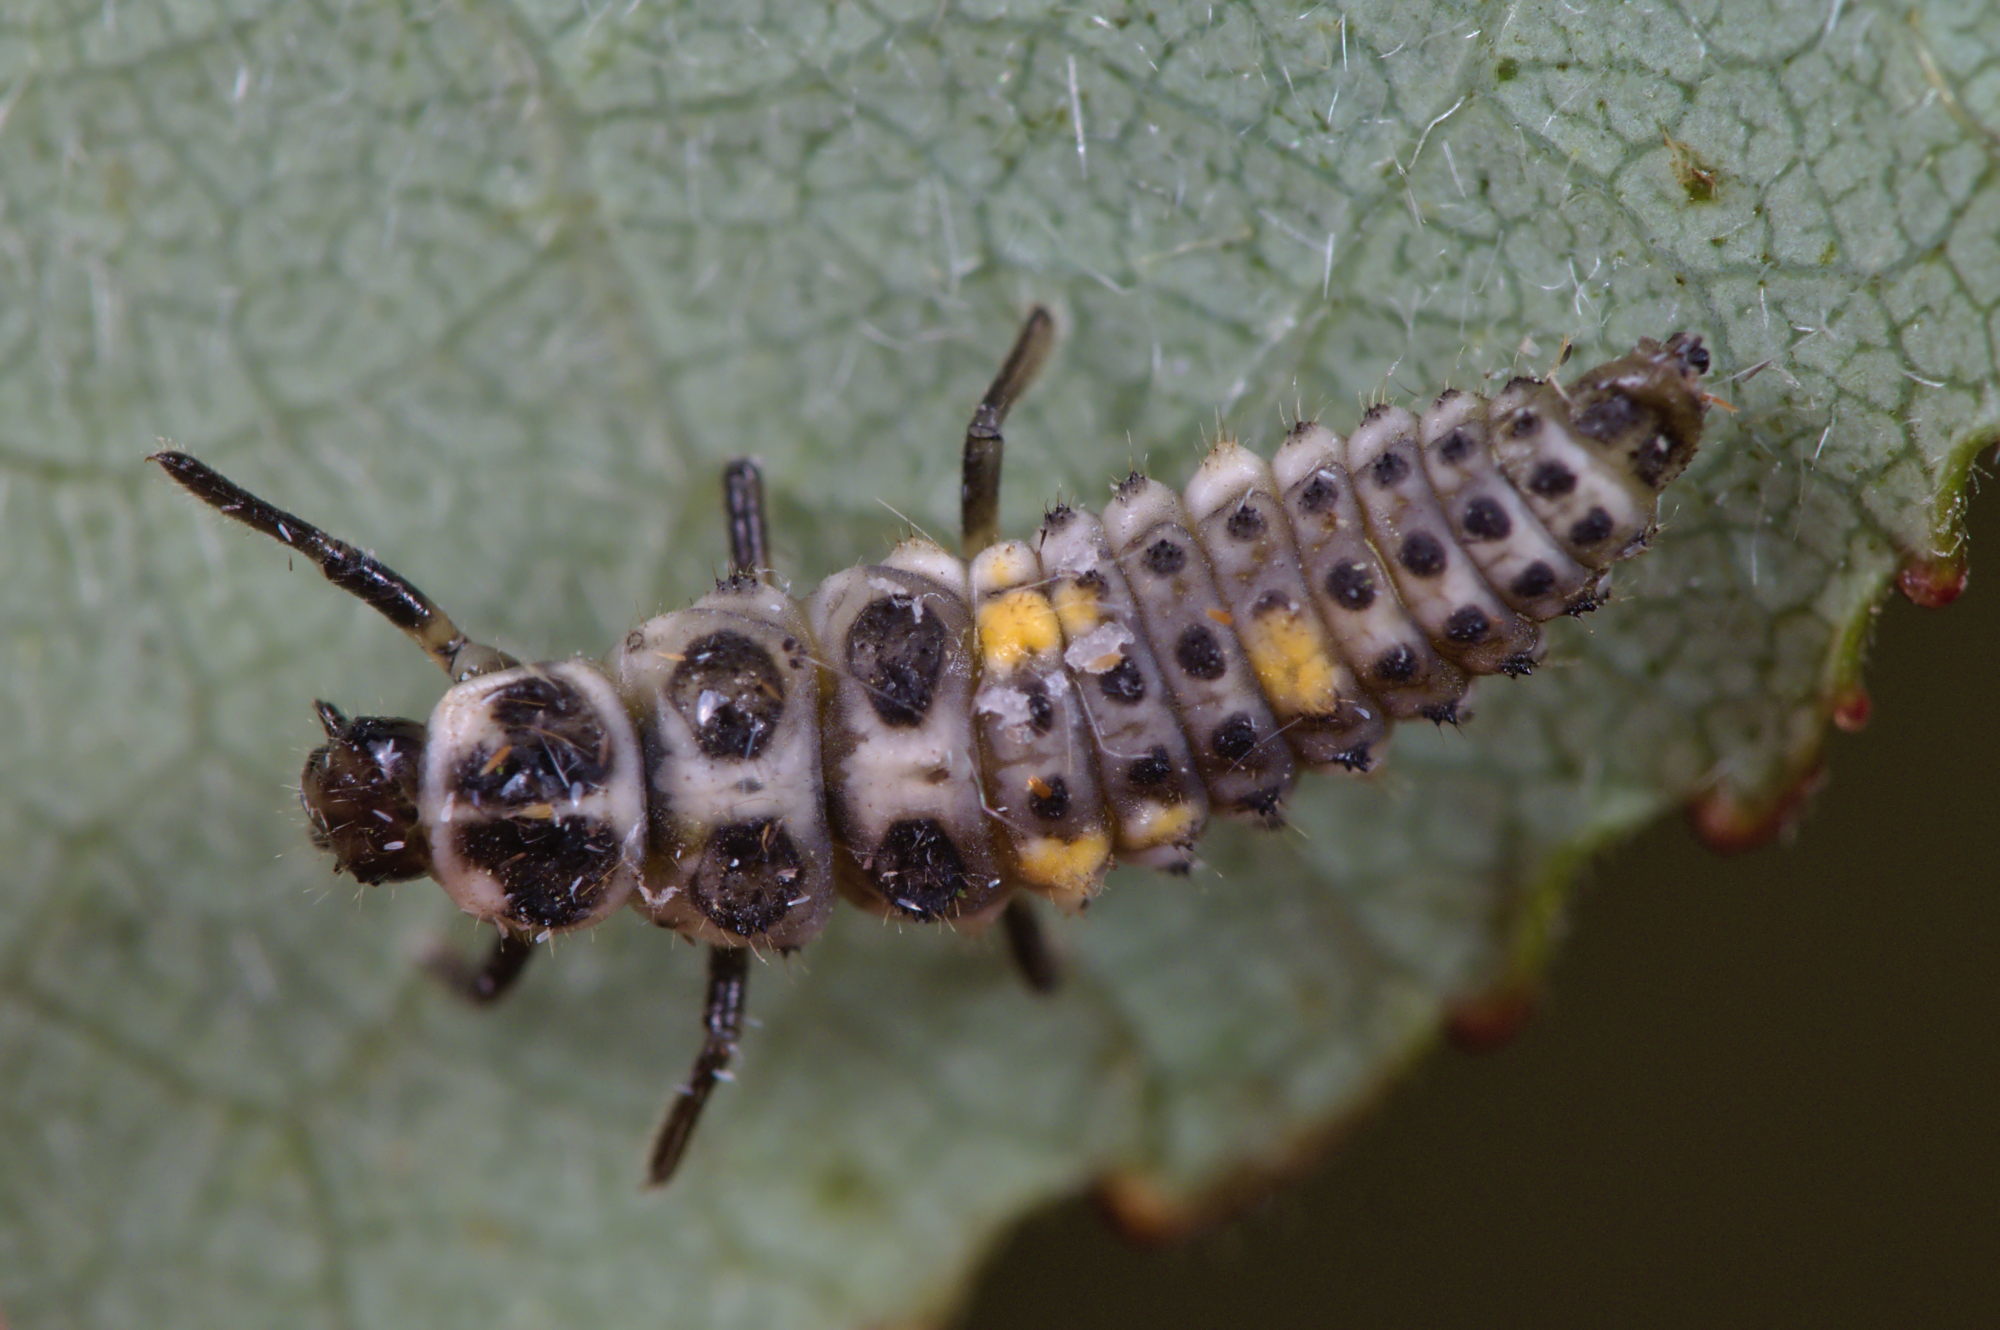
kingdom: Animalia
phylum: Arthropoda
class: Insecta
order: Coleoptera
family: Coccinellidae
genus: Adalia
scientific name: Adalia decempunctata
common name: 10-spot ladybird
